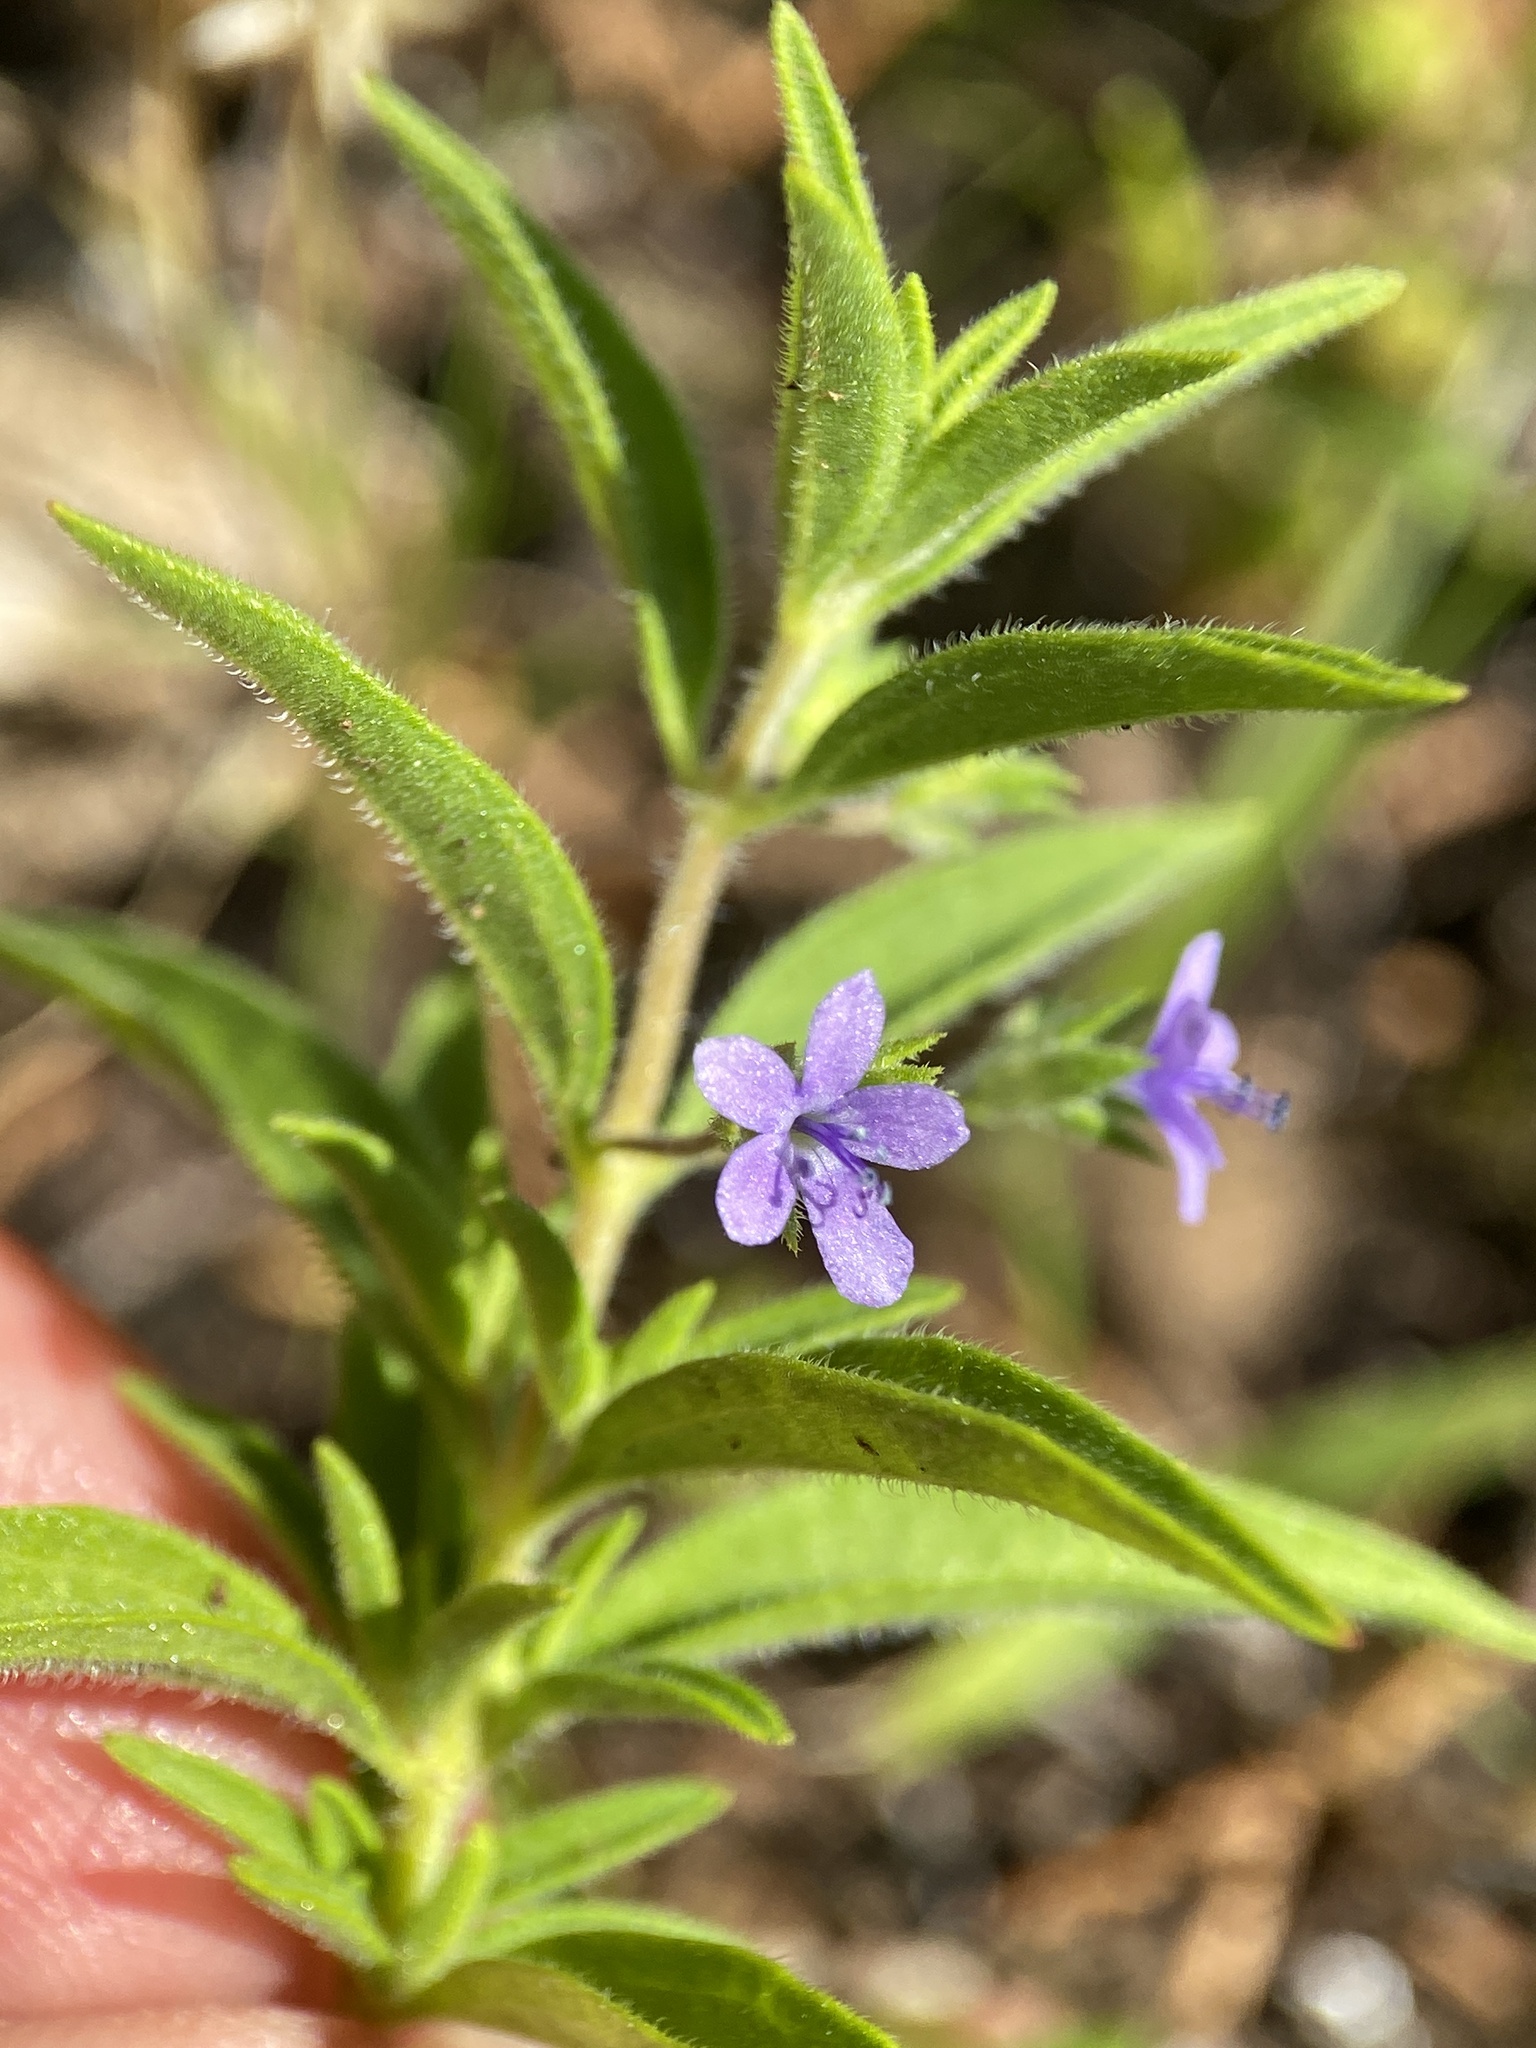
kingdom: Plantae
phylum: Tracheophyta
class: Magnoliopsida
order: Lamiales
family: Lamiaceae
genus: Trichostema
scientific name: Trichostema brachiatum
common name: False pennyroyal
